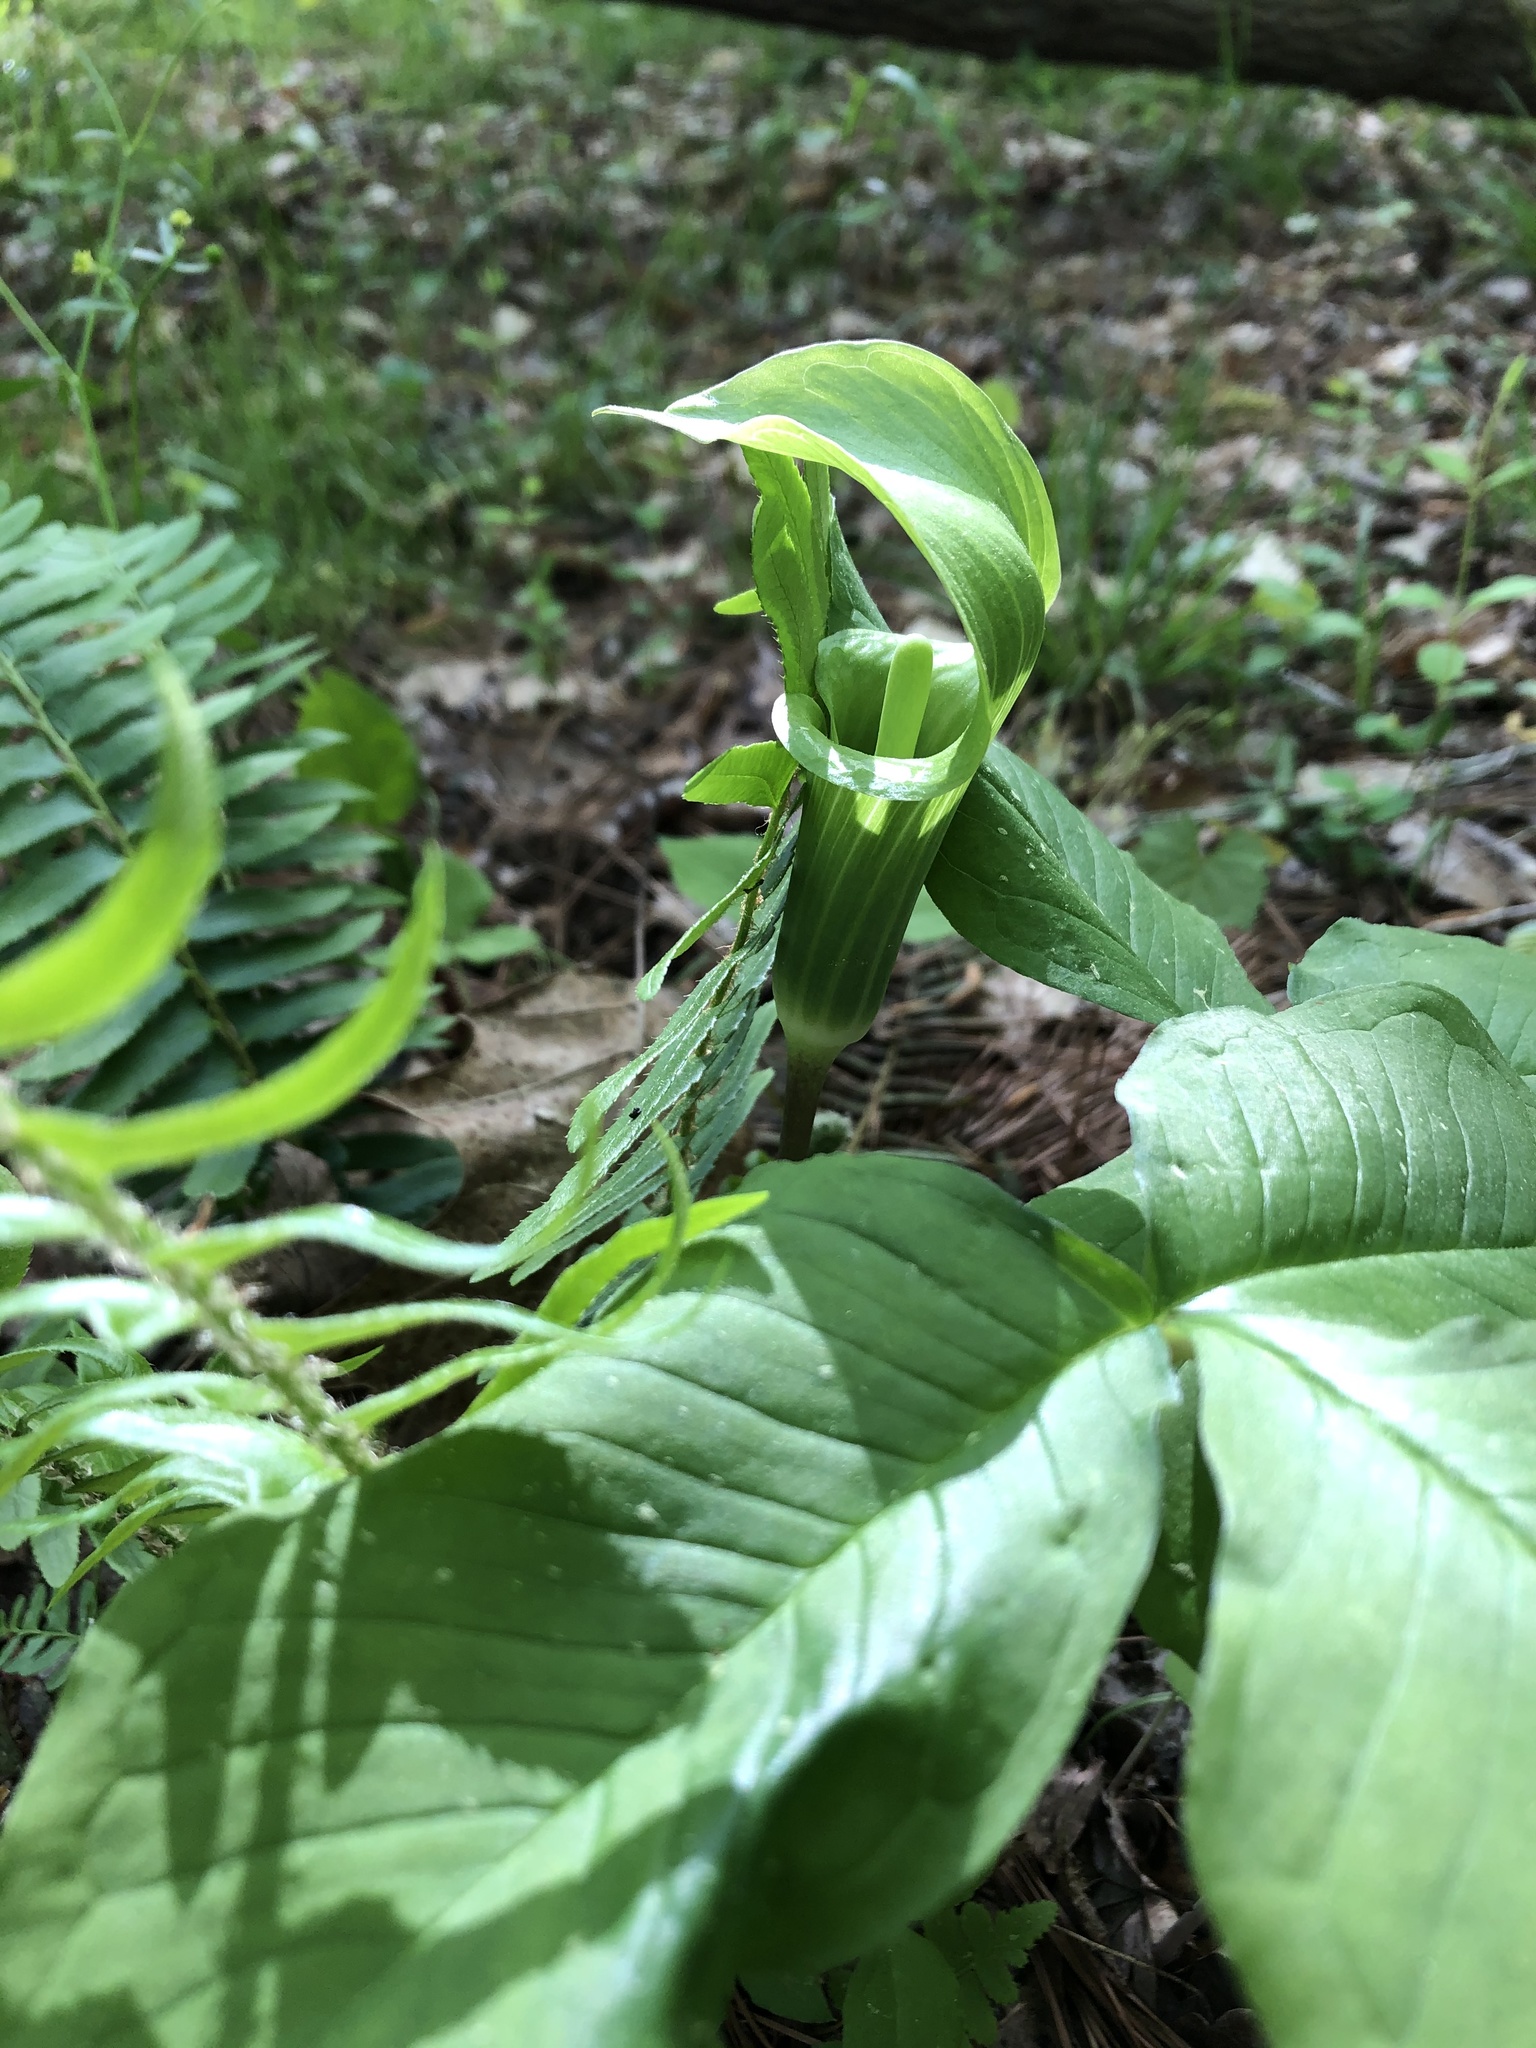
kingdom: Plantae
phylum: Tracheophyta
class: Liliopsida
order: Alismatales
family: Araceae
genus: Arisaema
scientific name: Arisaema triphyllum
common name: Jack-in-the-pulpit
